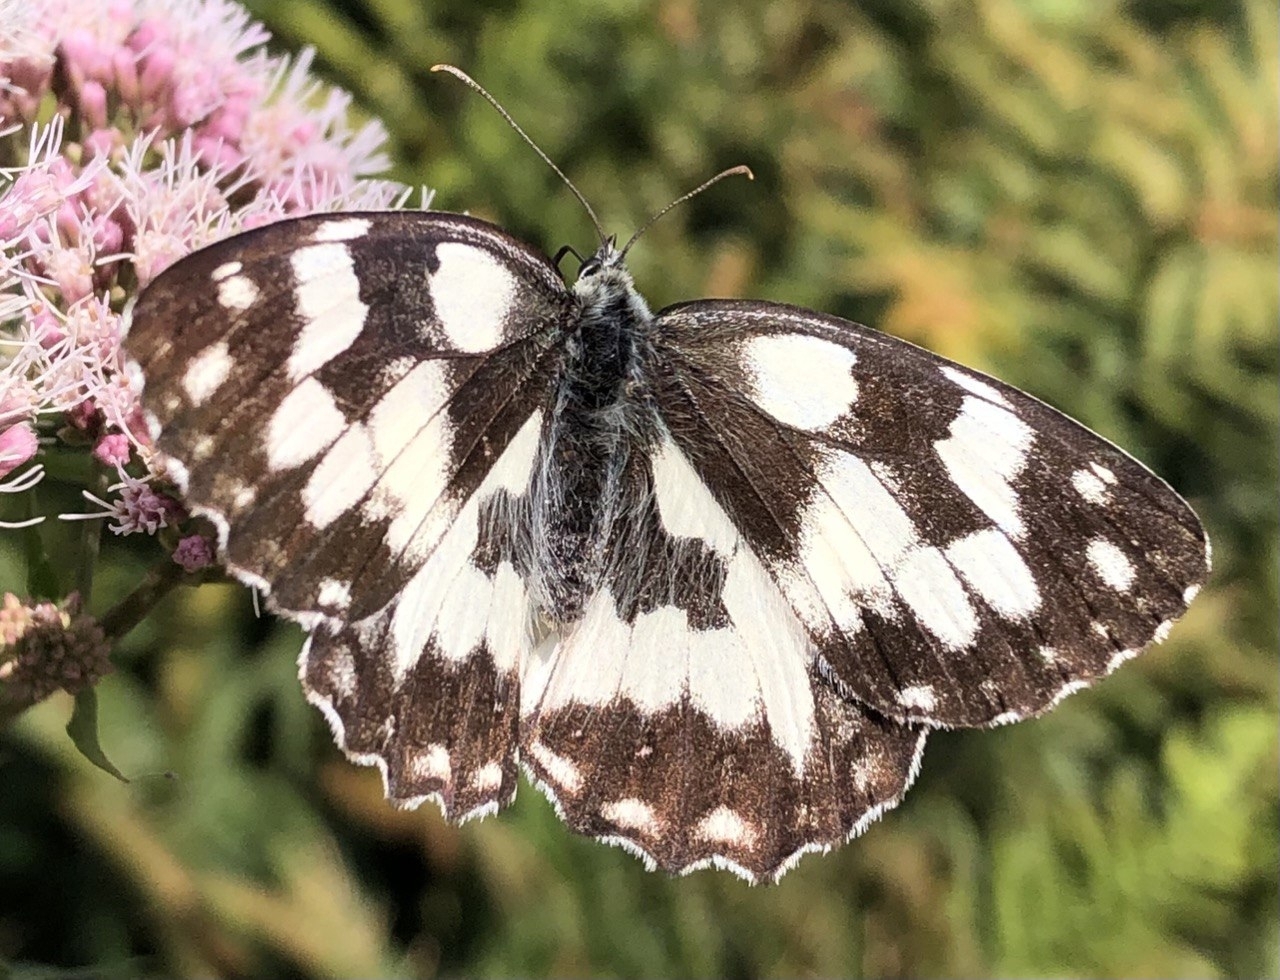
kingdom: Animalia
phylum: Arthropoda
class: Insecta
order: Lepidoptera
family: Nymphalidae
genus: Melanargia
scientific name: Melanargia galathea
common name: Marbled white
